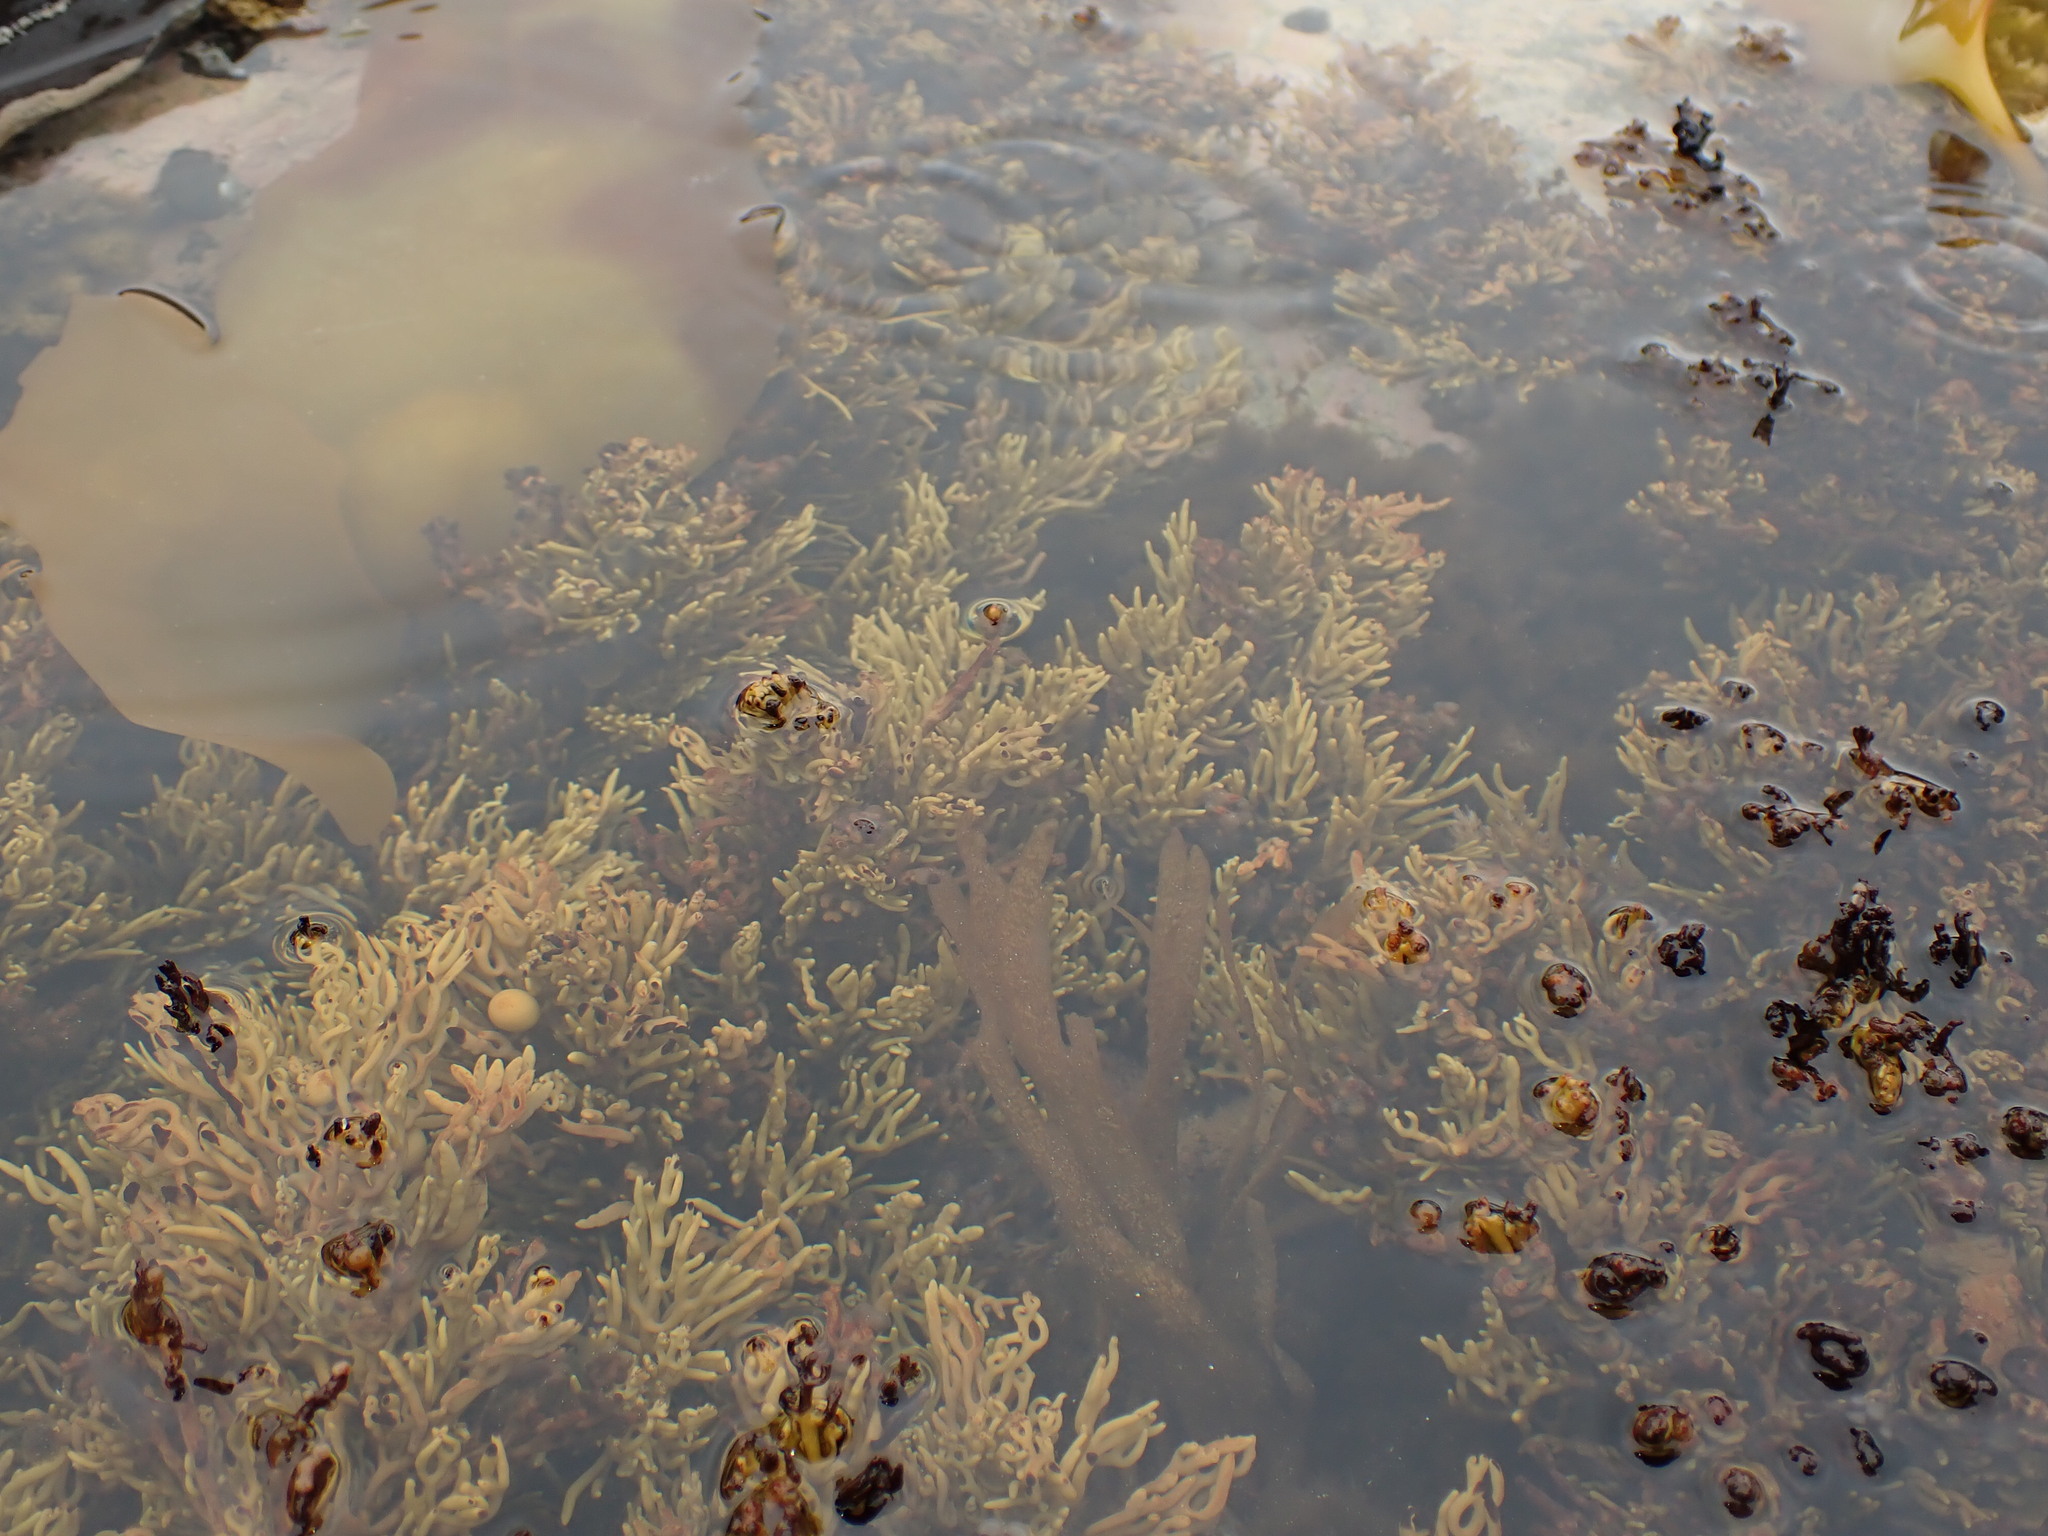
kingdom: Chromista
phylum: Ochrophyta
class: Phaeophyceae
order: Fucales
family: Sargassaceae
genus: Cystophora
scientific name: Cystophora retroflexa
